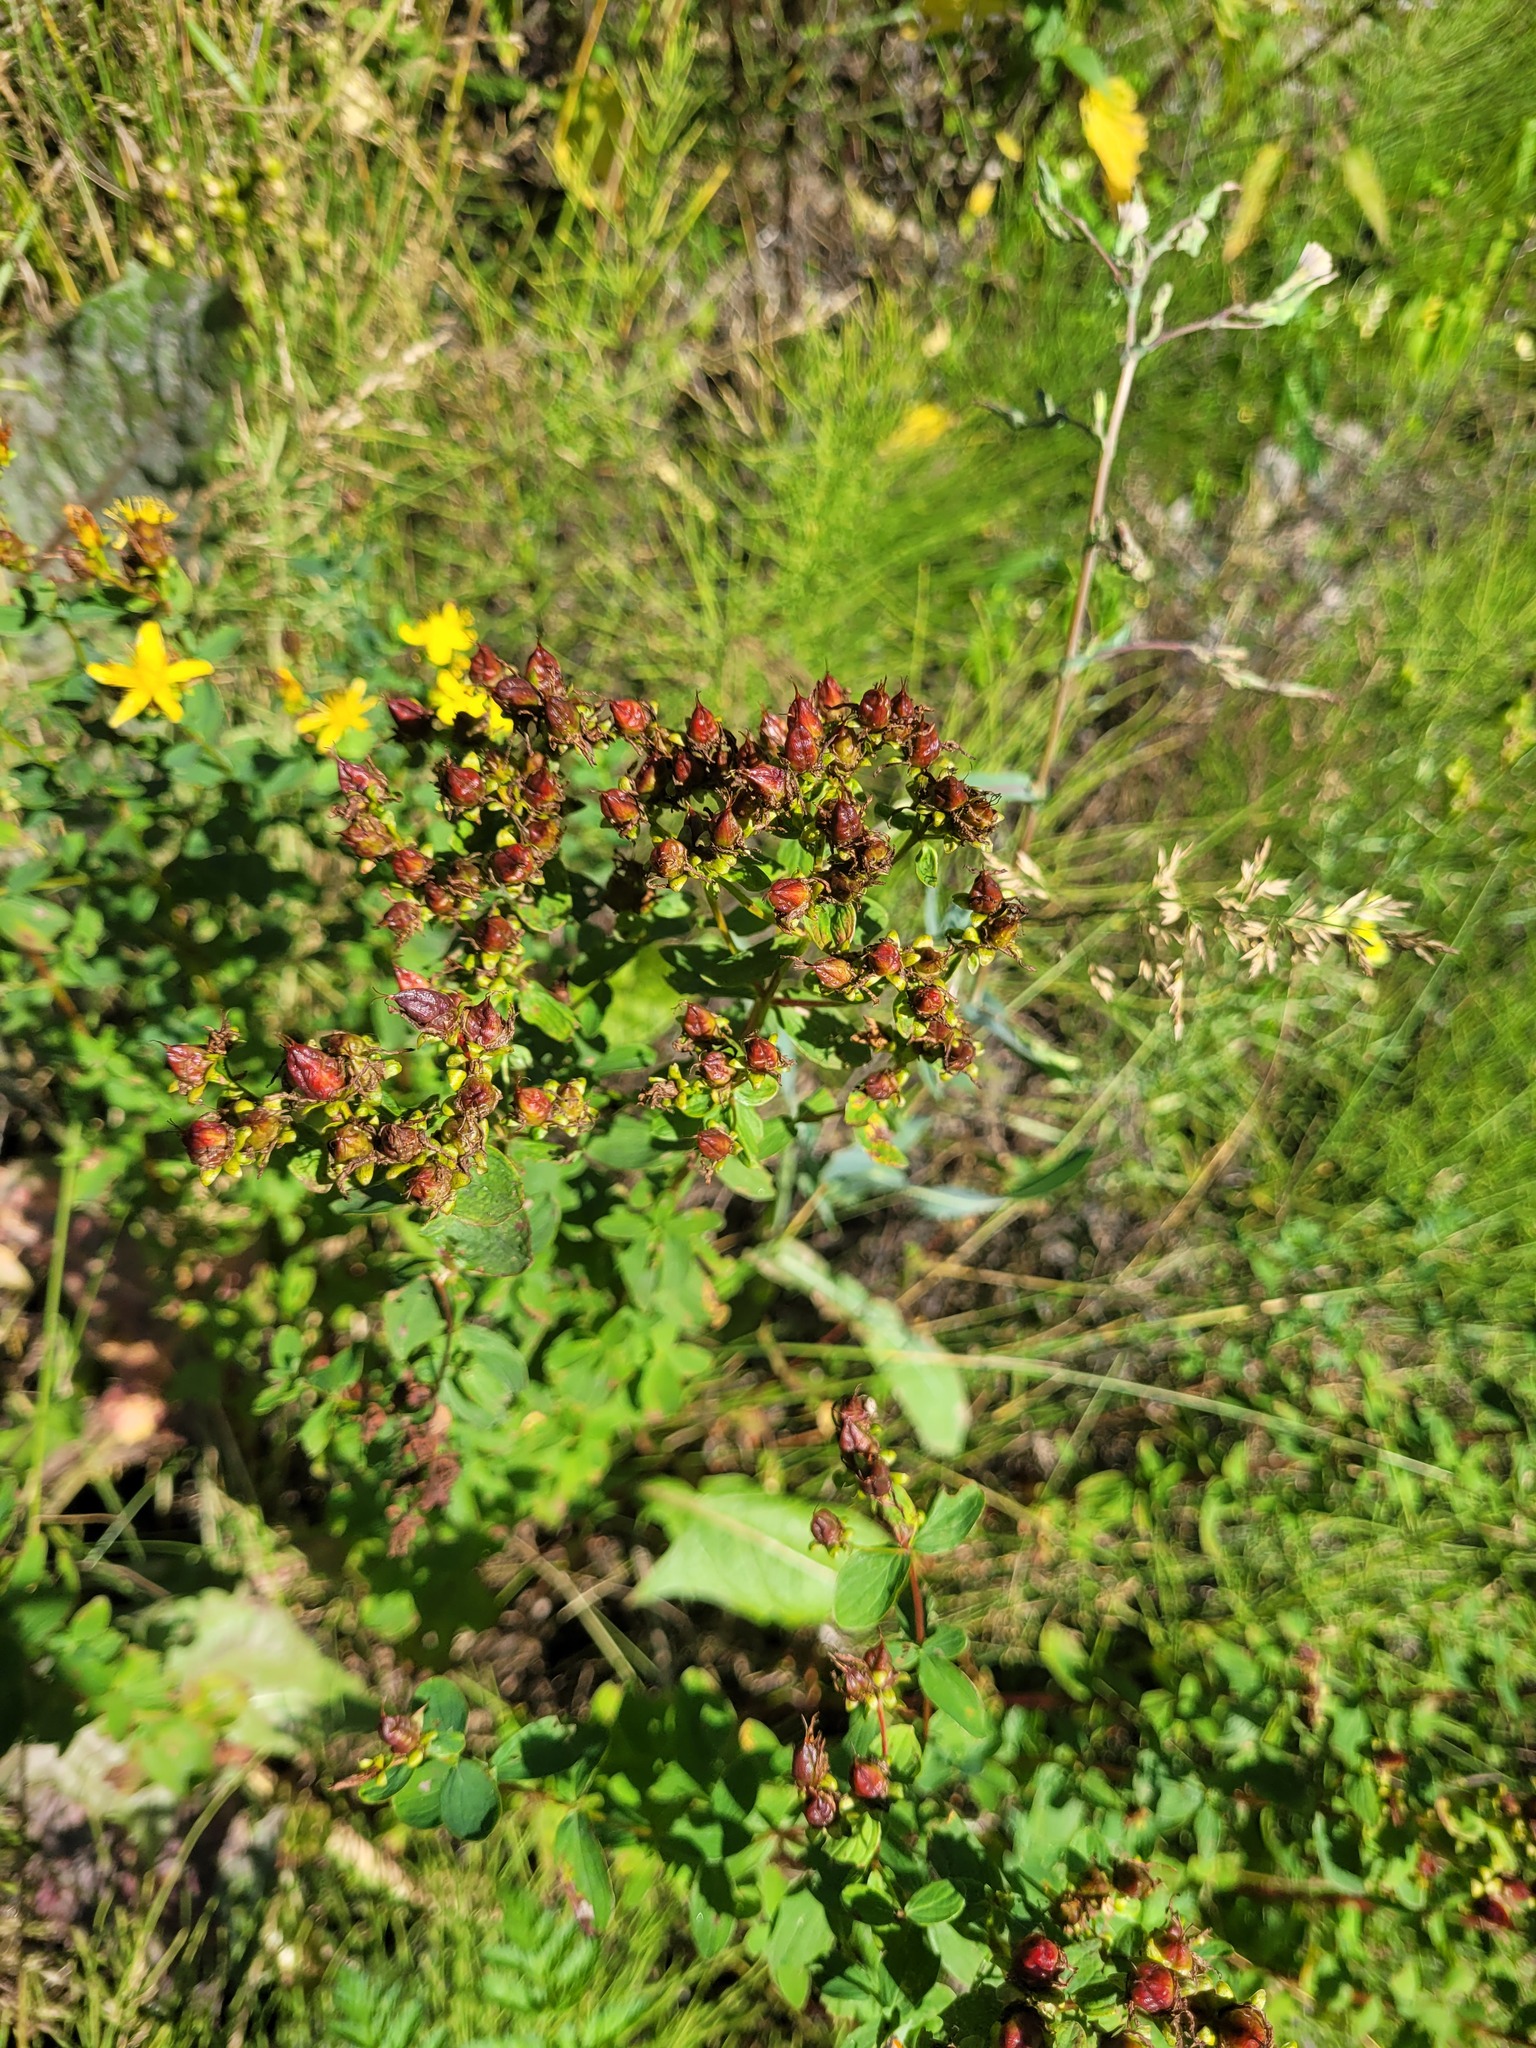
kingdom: Plantae
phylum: Tracheophyta
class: Magnoliopsida
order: Malpighiales
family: Hypericaceae
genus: Hypericum
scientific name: Hypericum maculatum
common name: Imperforate st. john's-wort
